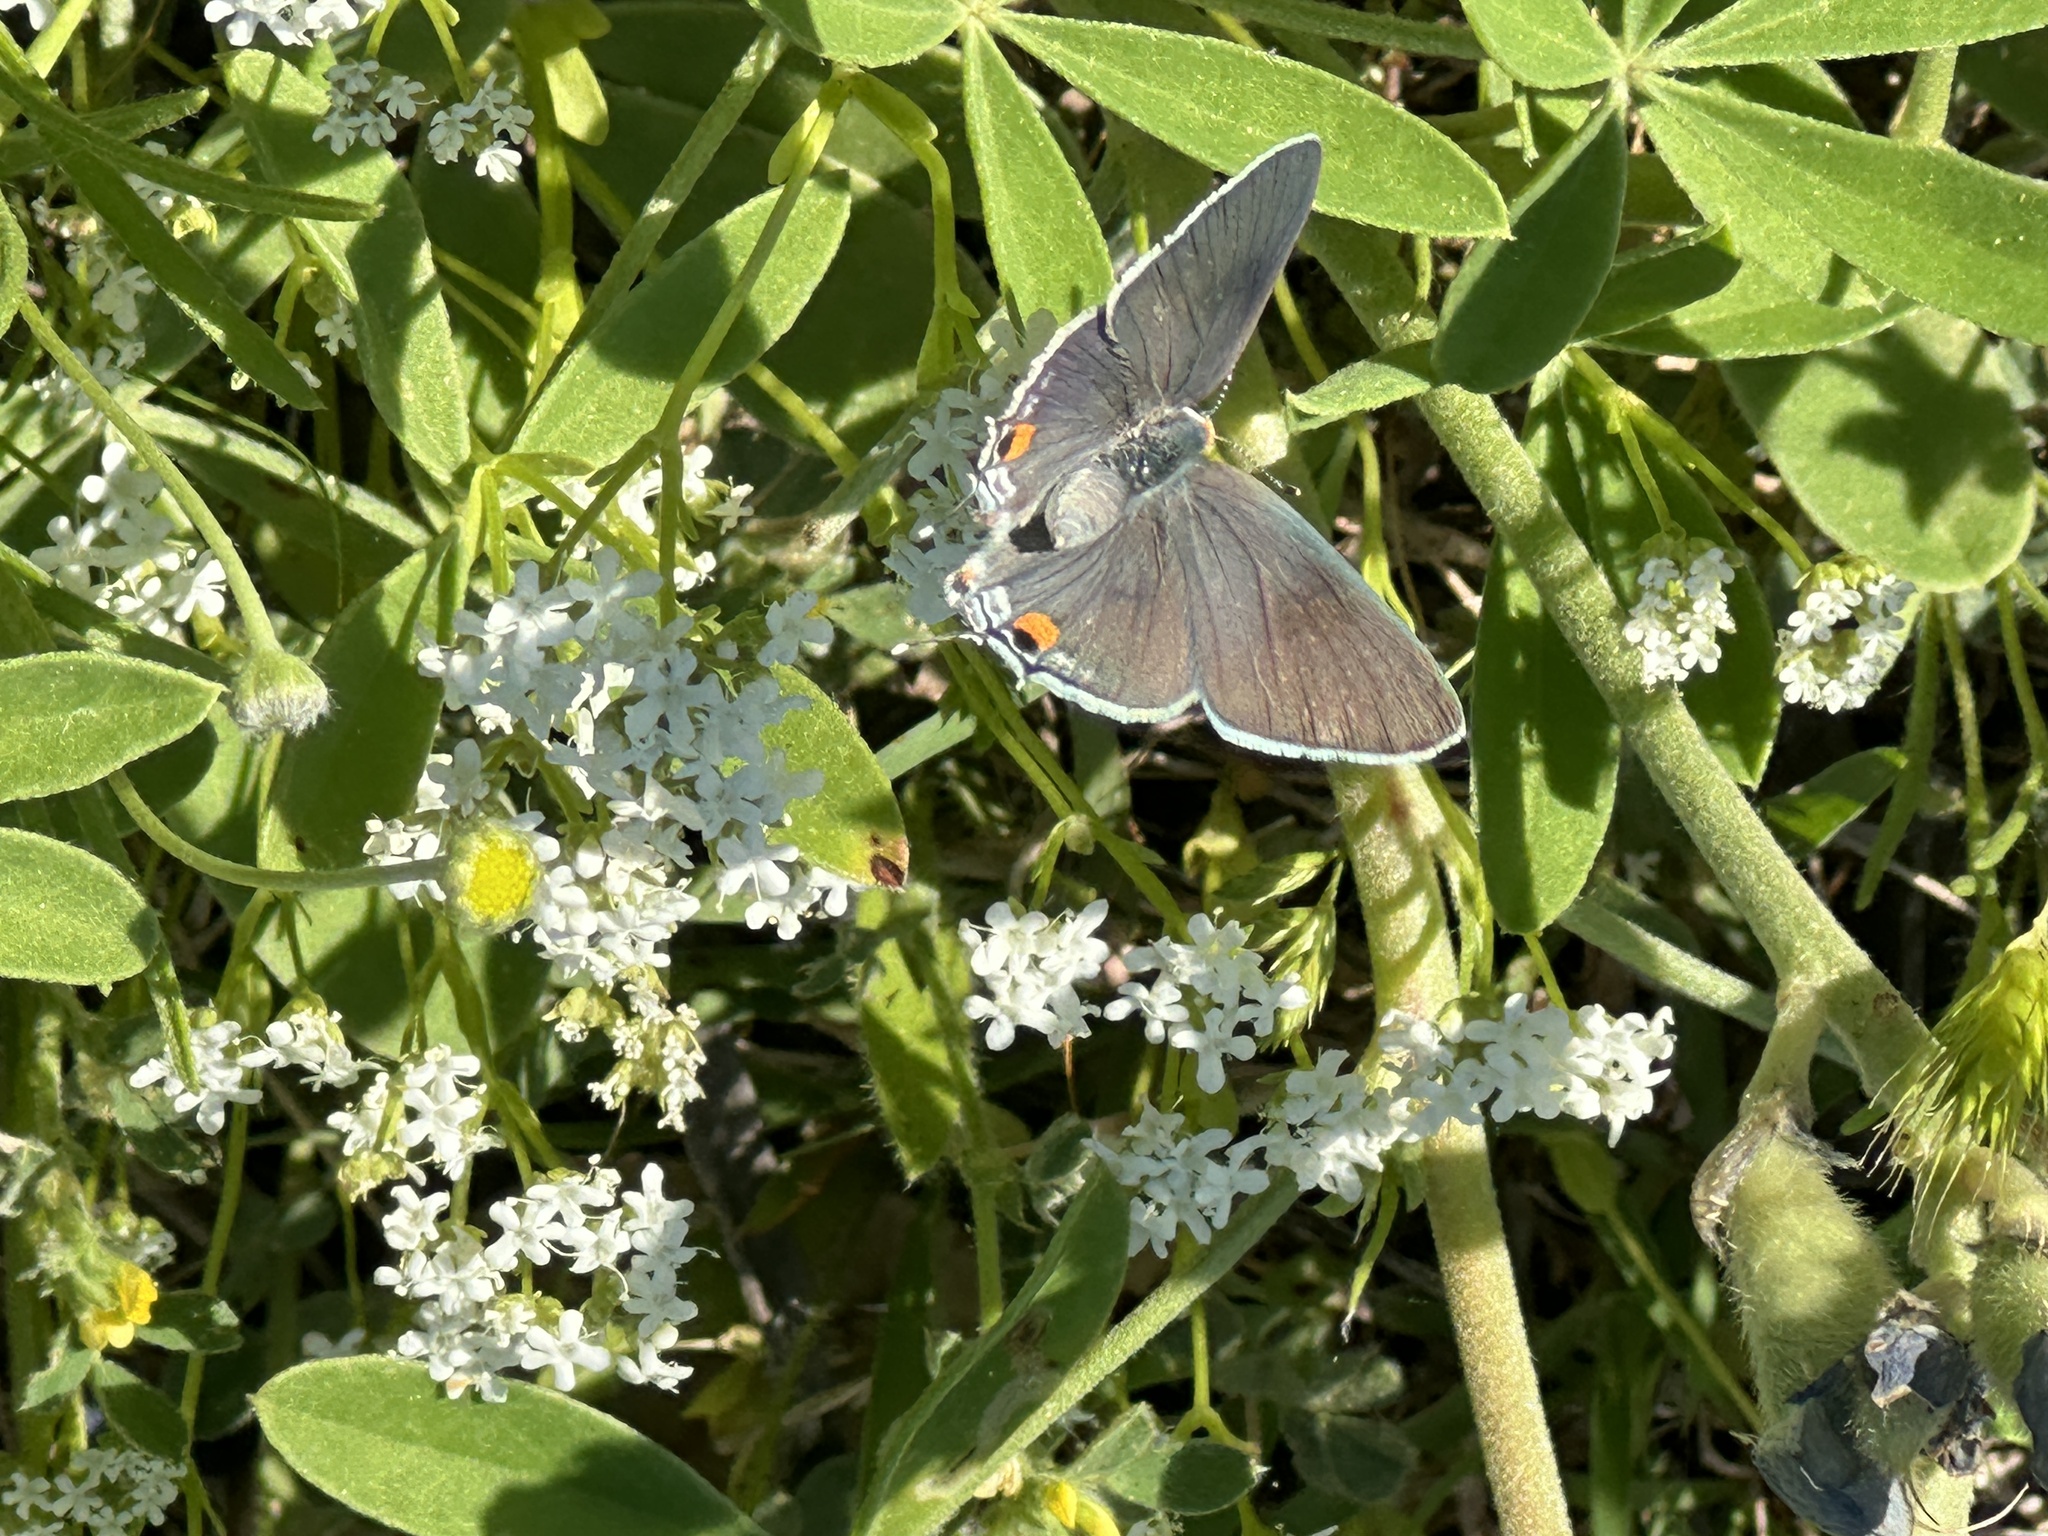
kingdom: Animalia
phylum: Arthropoda
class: Insecta
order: Lepidoptera
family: Lycaenidae
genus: Strymon
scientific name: Strymon melinus
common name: Gray hairstreak
